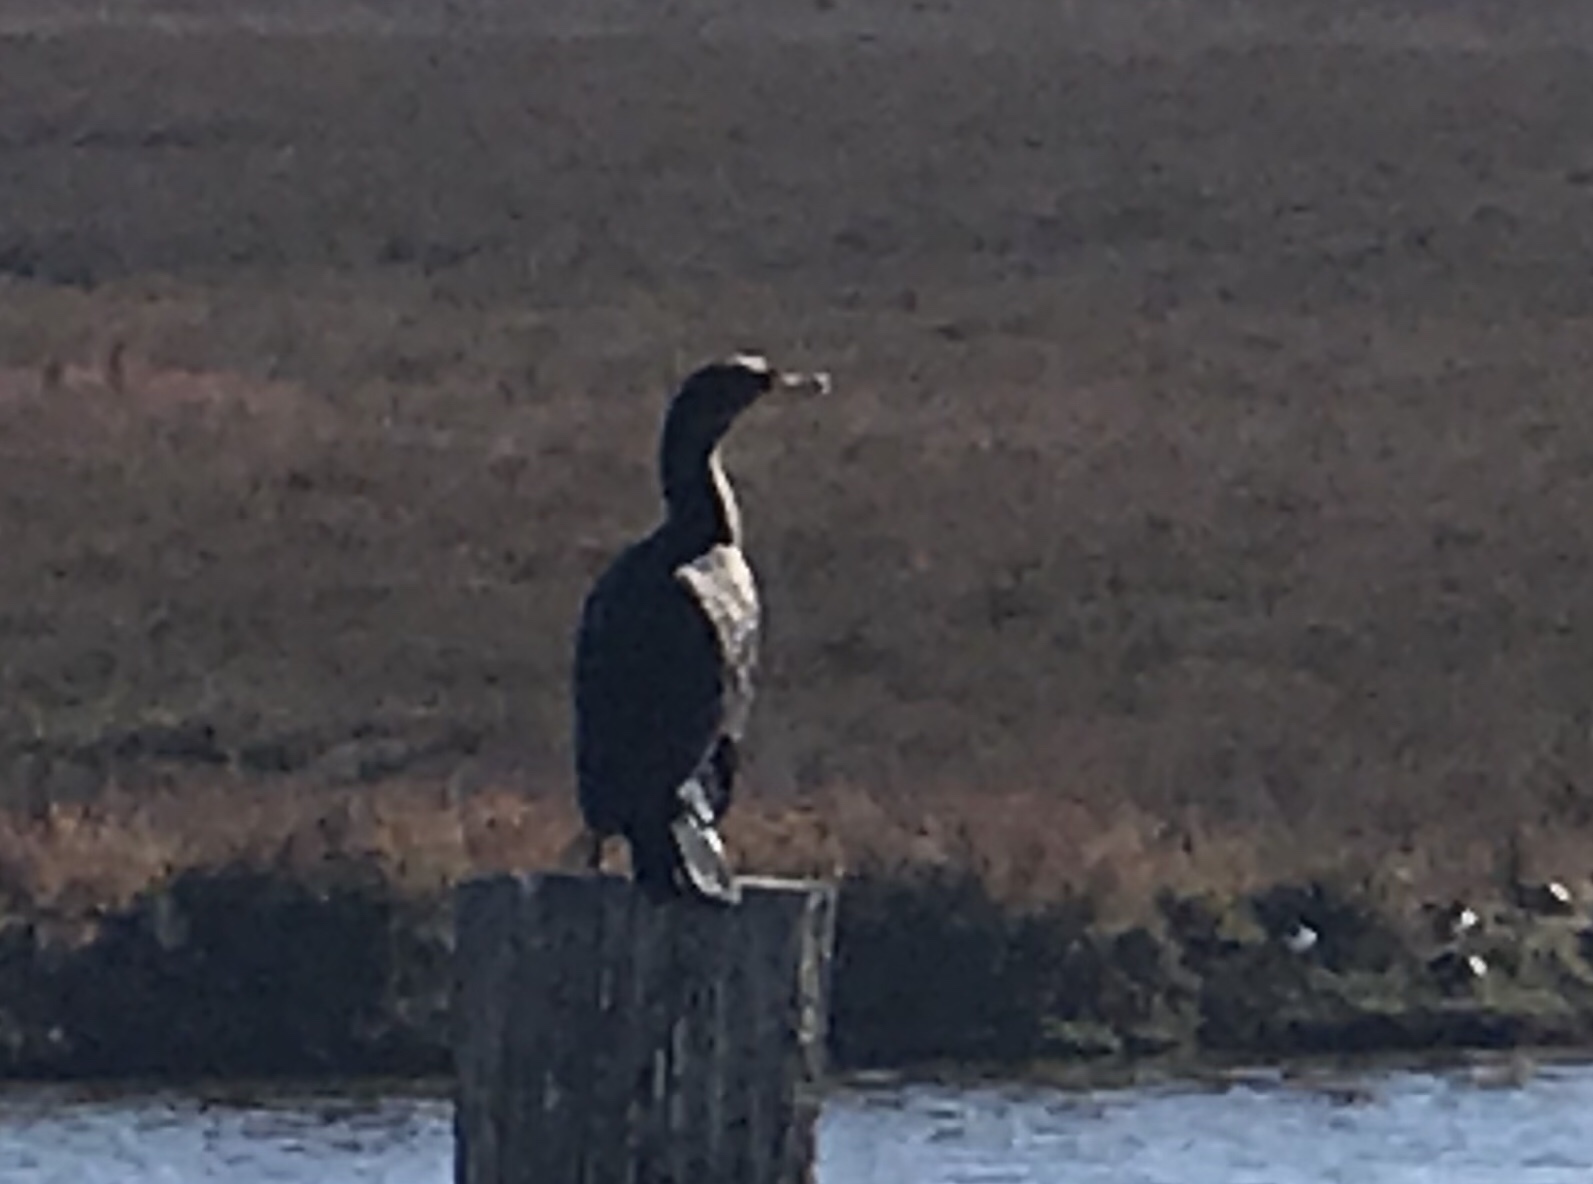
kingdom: Animalia
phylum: Chordata
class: Aves
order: Suliformes
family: Phalacrocoracidae
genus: Phalacrocorax
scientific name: Phalacrocorax auritus
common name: Double-crested cormorant
